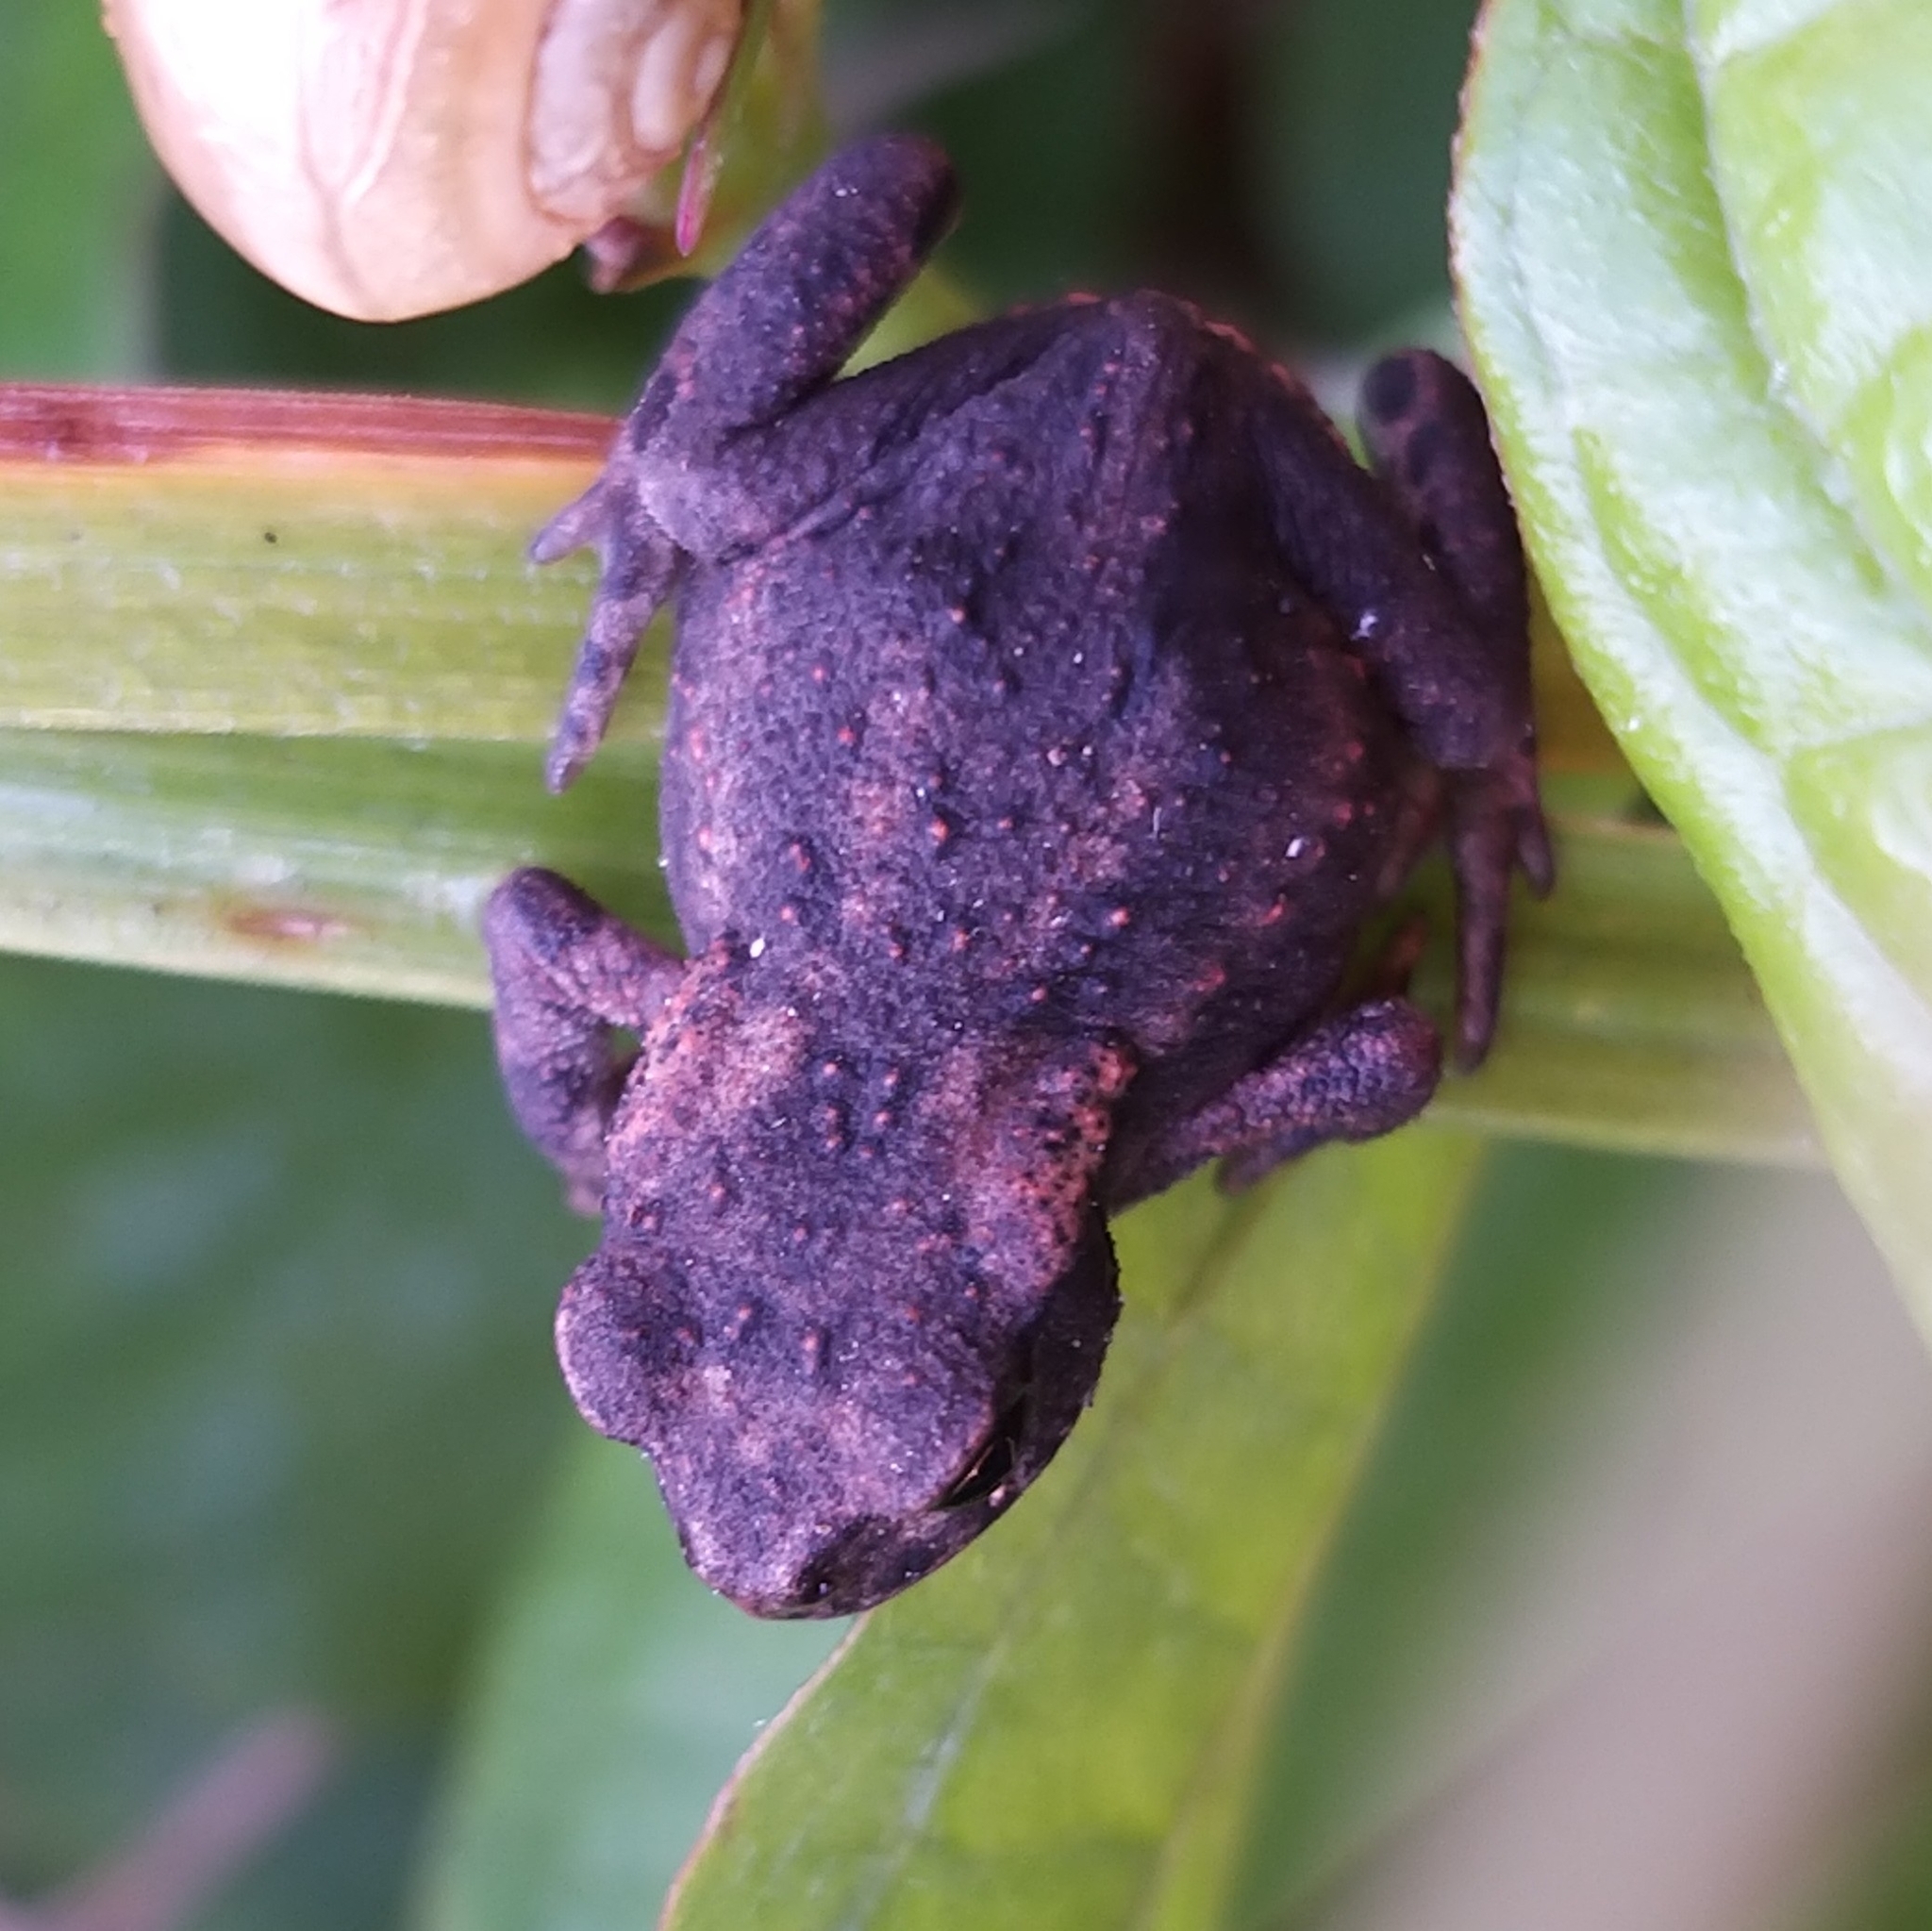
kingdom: Animalia
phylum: Chordata
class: Amphibia
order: Anura
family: Bufonidae
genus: Bufo
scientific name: Bufo bufo
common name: Common toad
